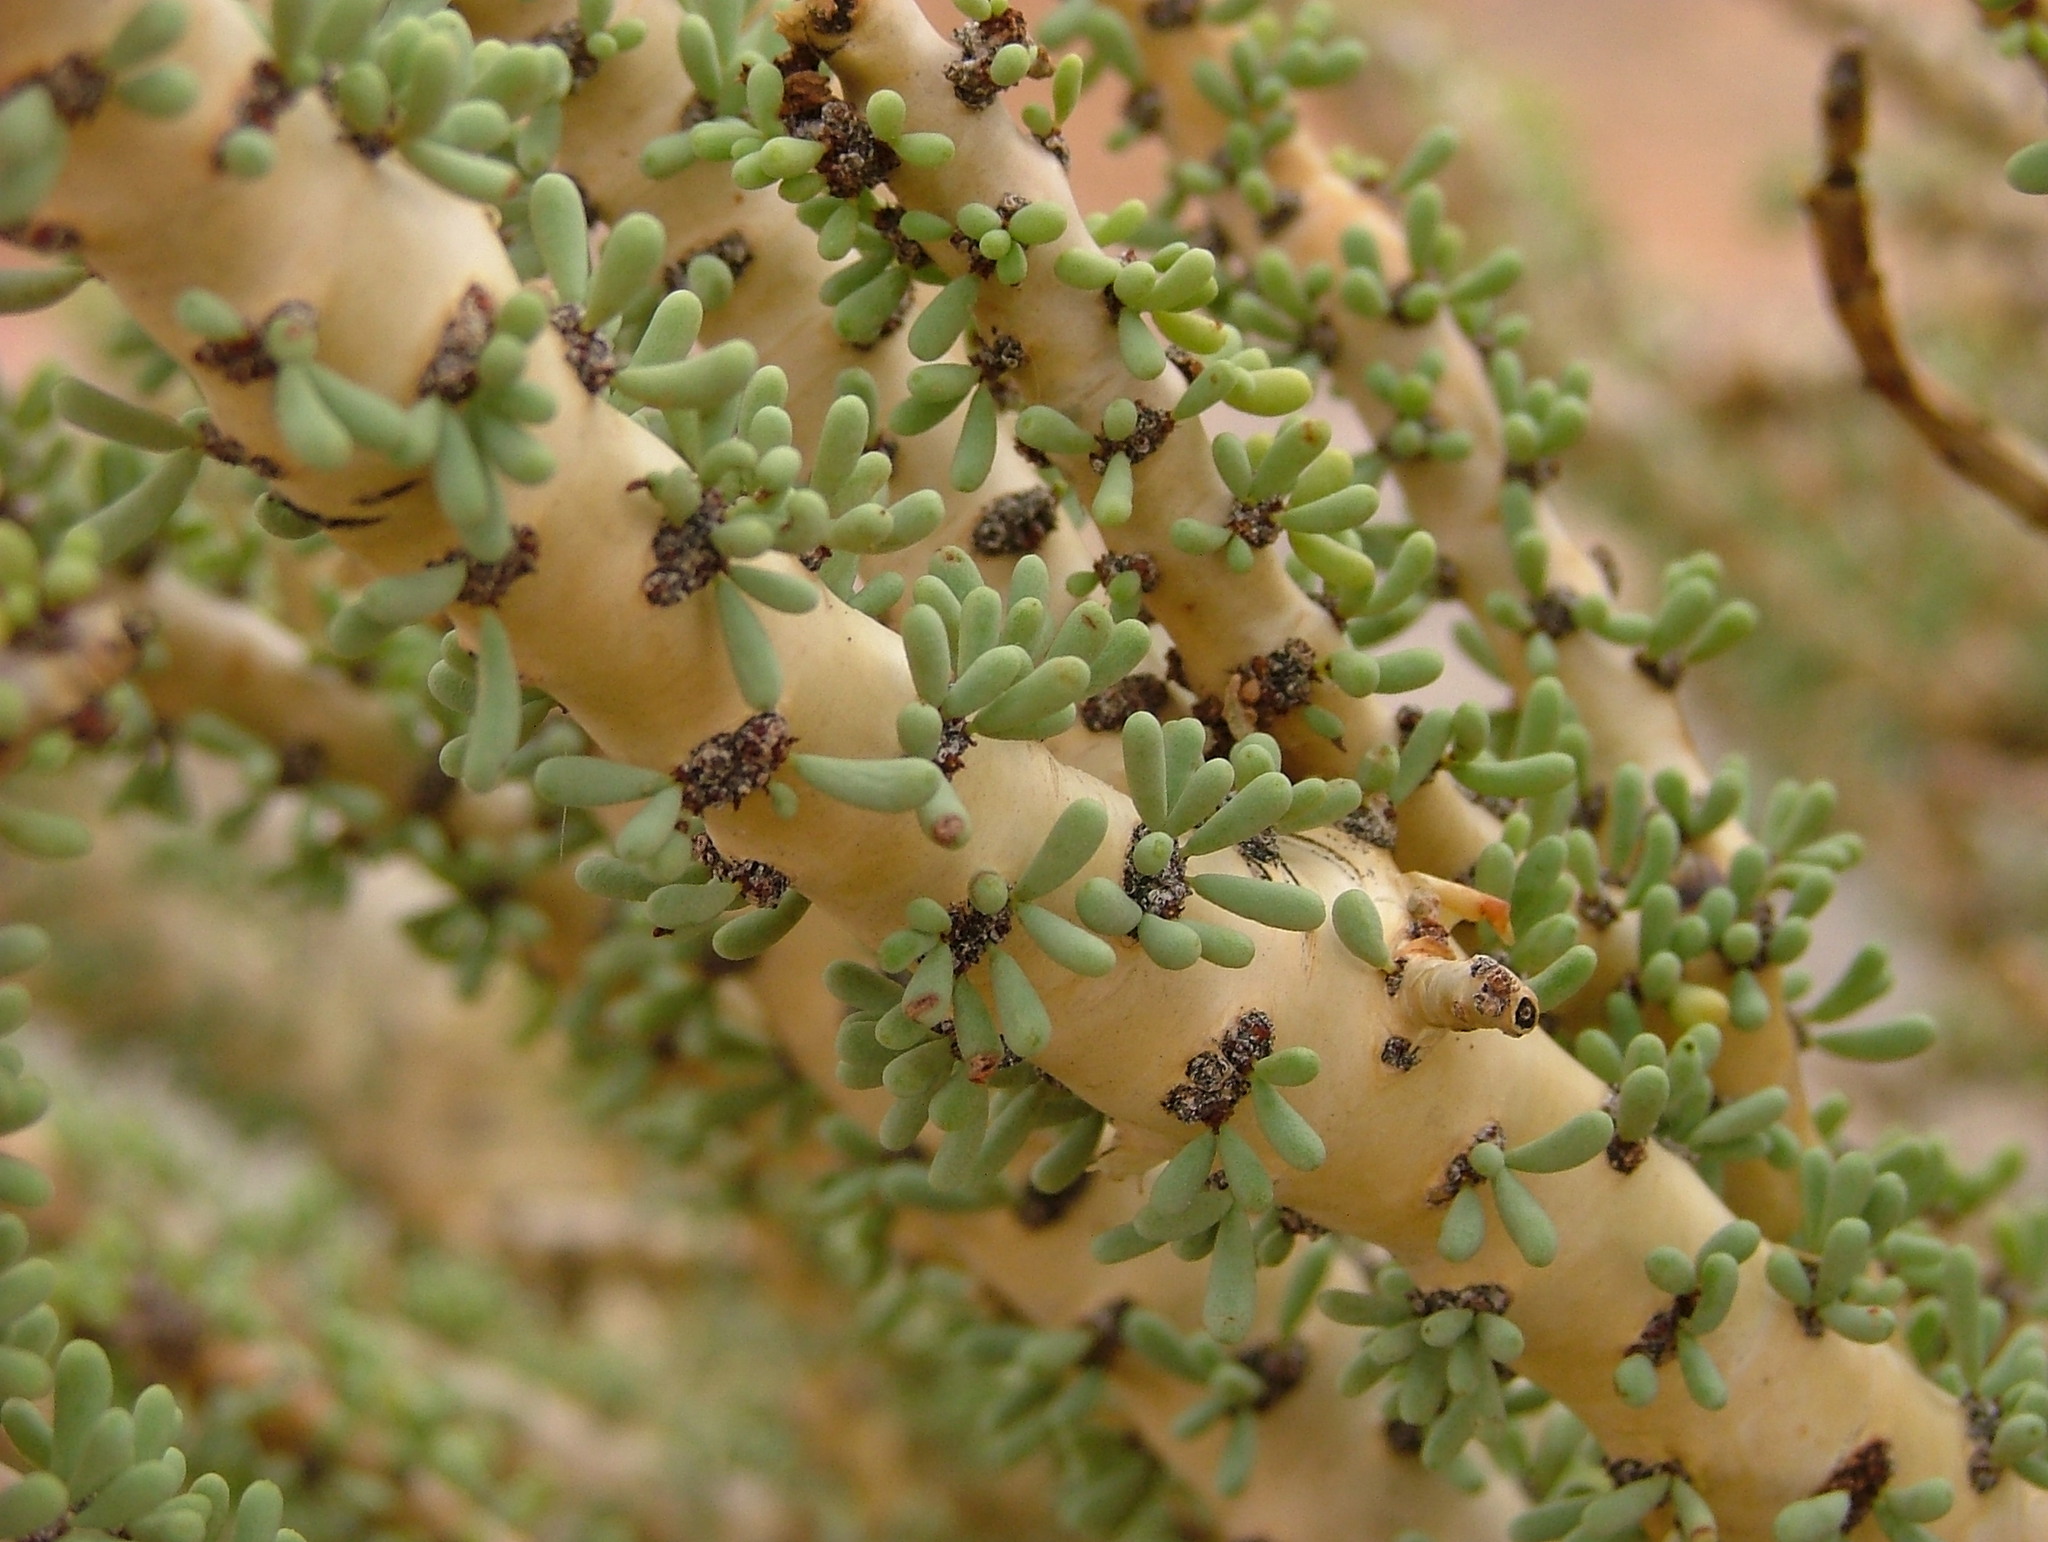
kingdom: Plantae
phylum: Tracheophyta
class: Magnoliopsida
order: Caryophyllales
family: Didiereaceae
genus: Portulacaria
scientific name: Portulacaria namaquensis
